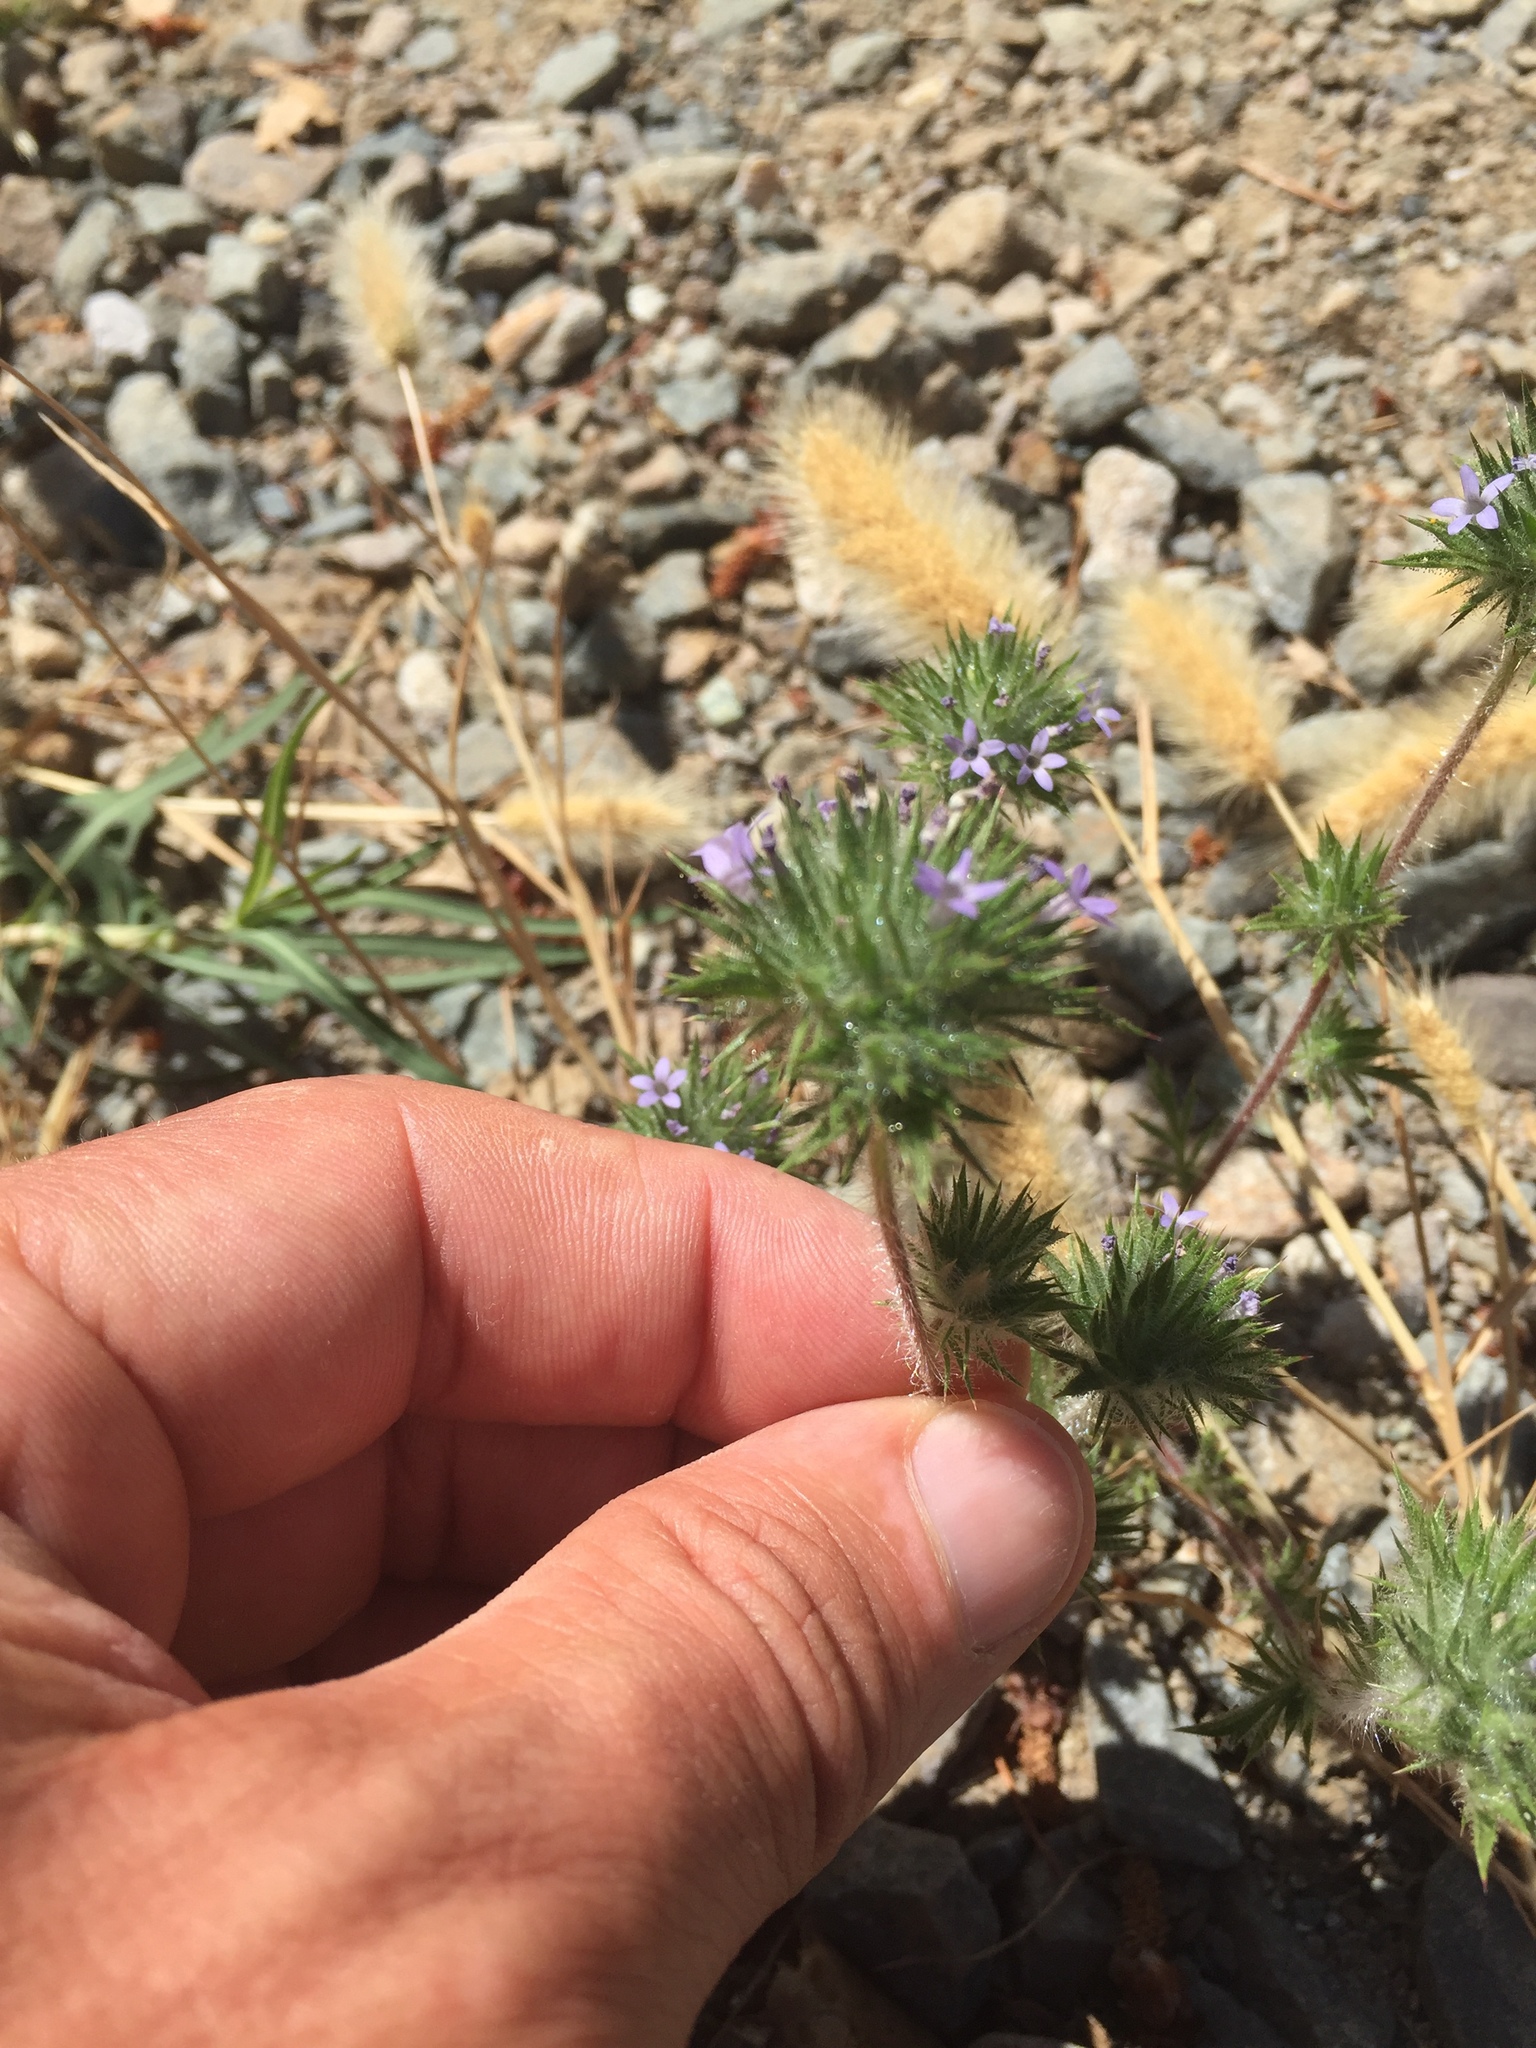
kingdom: Plantae
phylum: Tracheophyta
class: Magnoliopsida
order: Ericales
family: Polemoniaceae
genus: Navarretia
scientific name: Navarretia squarrosa
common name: Skunkweed
